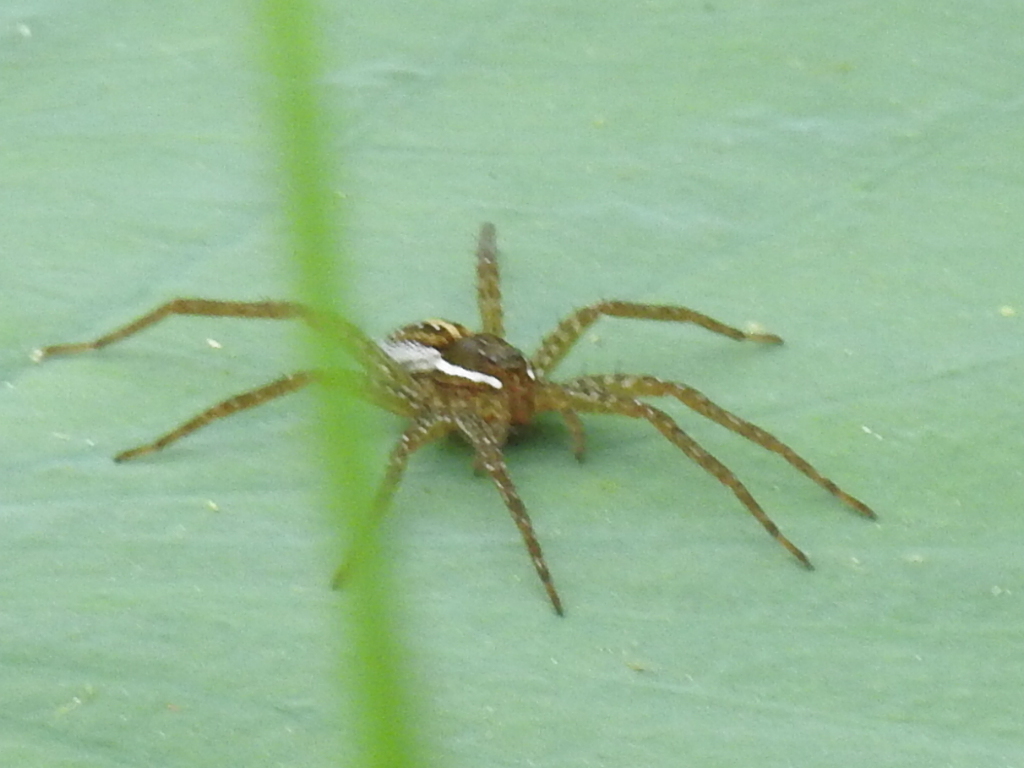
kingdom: Animalia
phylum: Arthropoda
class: Arachnida
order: Araneae
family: Pisauridae
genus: Dolomedes
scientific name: Dolomedes triton
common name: Six-spotted fishing spider
